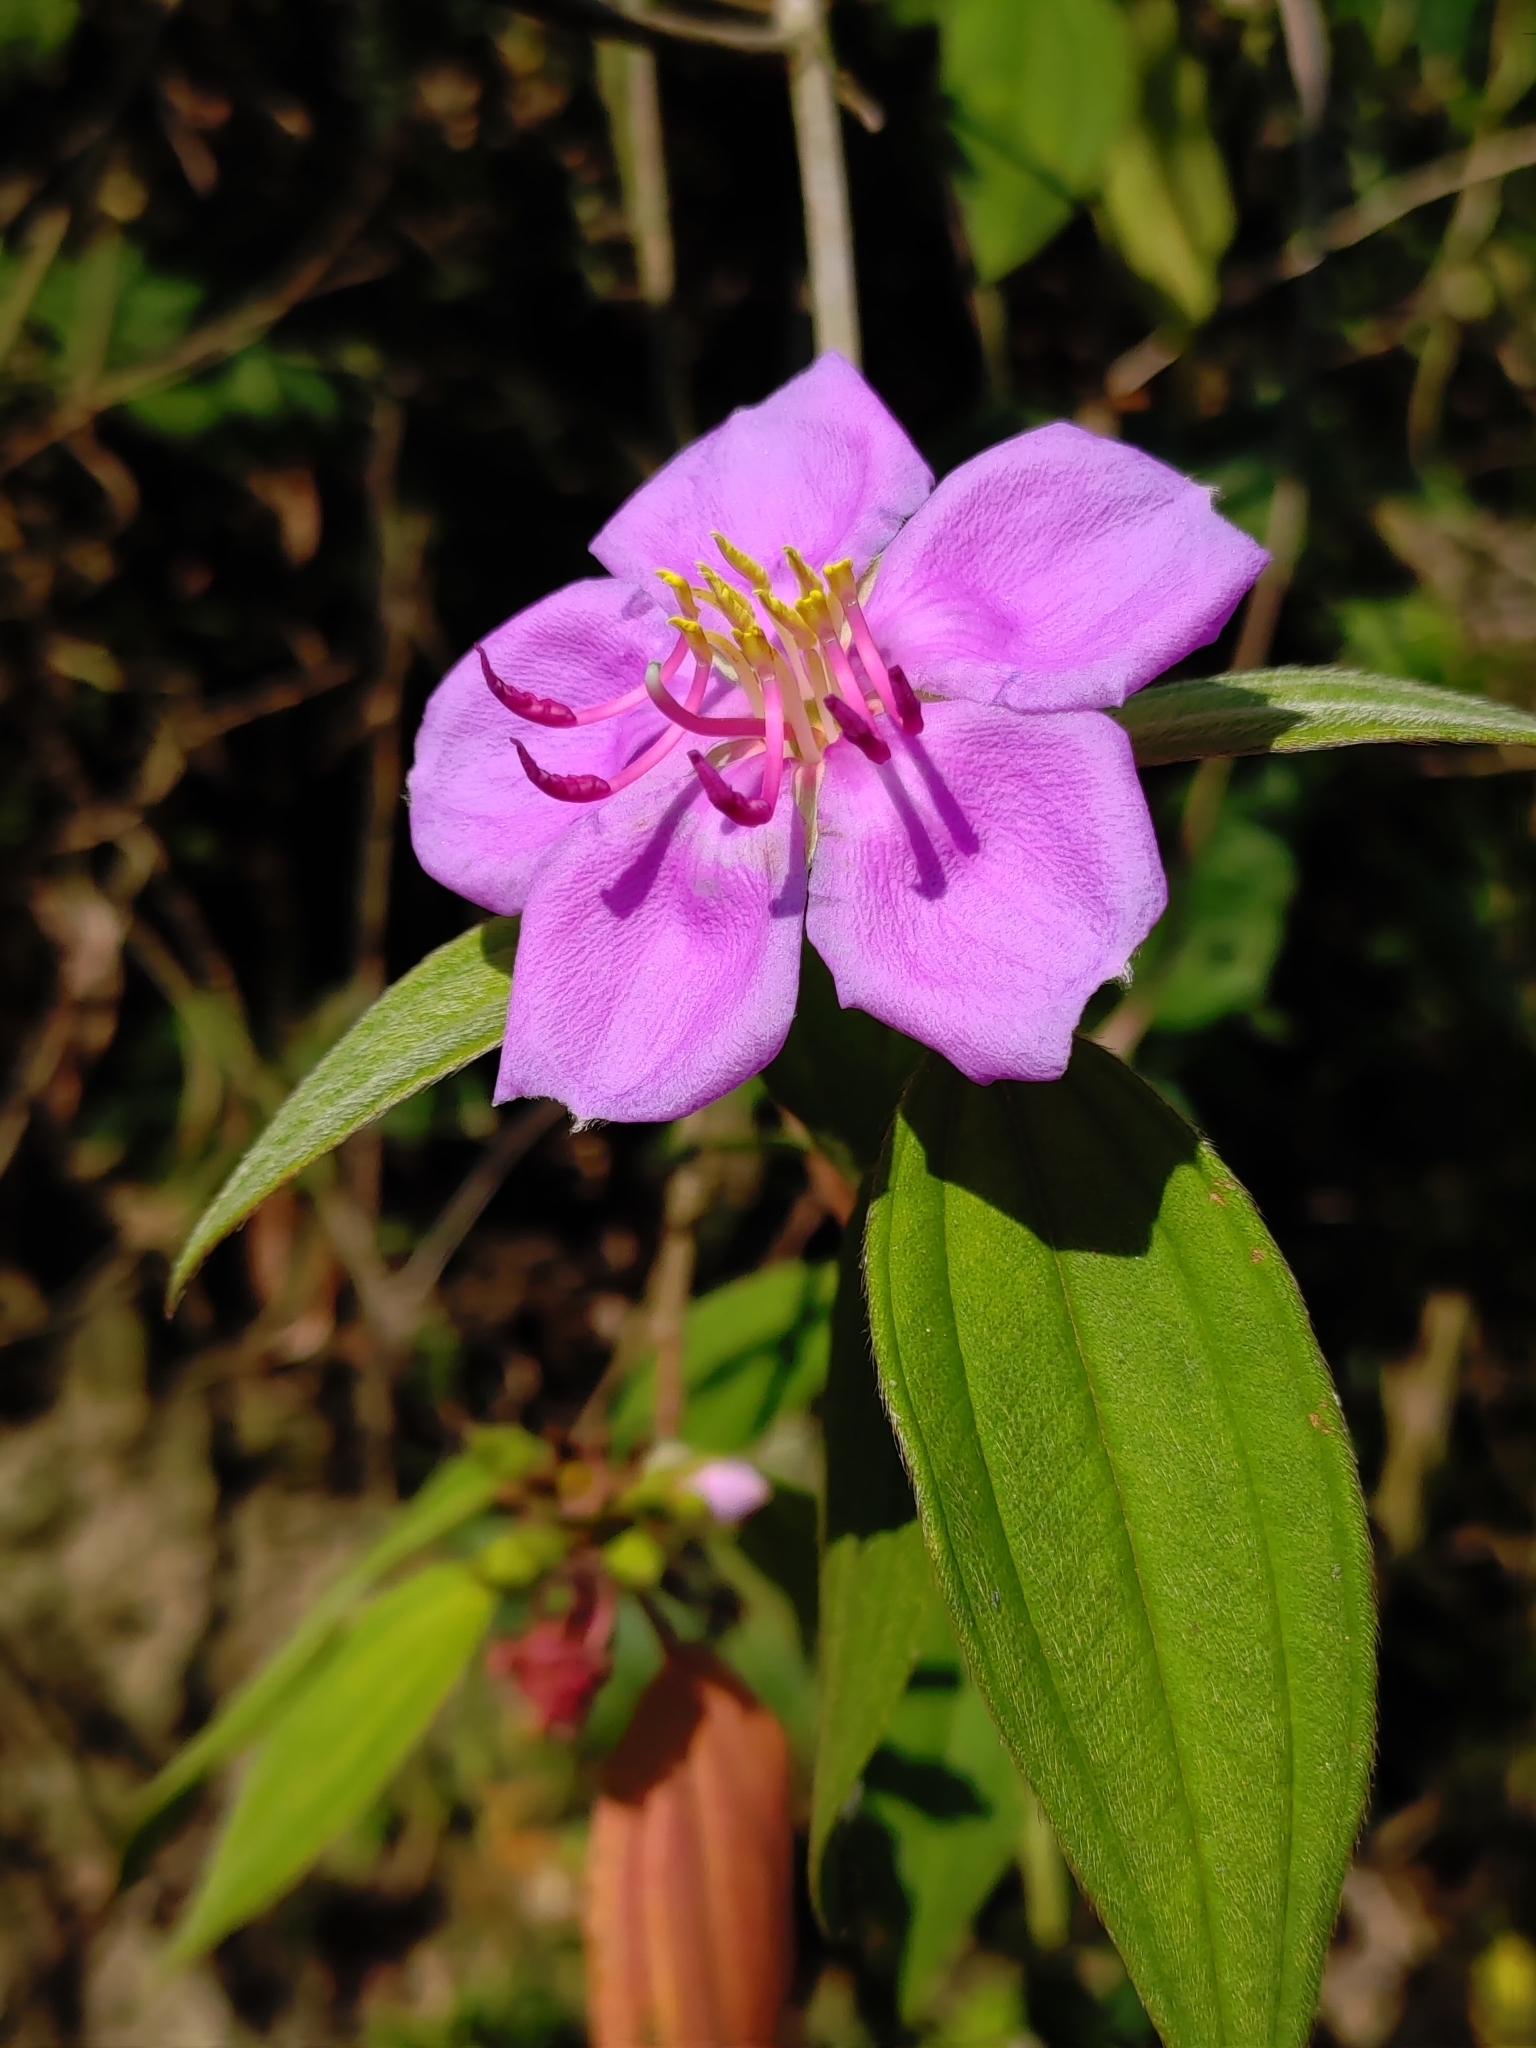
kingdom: Plantae
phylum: Tracheophyta
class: Magnoliopsida
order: Myrtales
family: Melastomataceae
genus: Melastoma
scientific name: Melastoma malabathricum
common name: Indian-rhododendron
